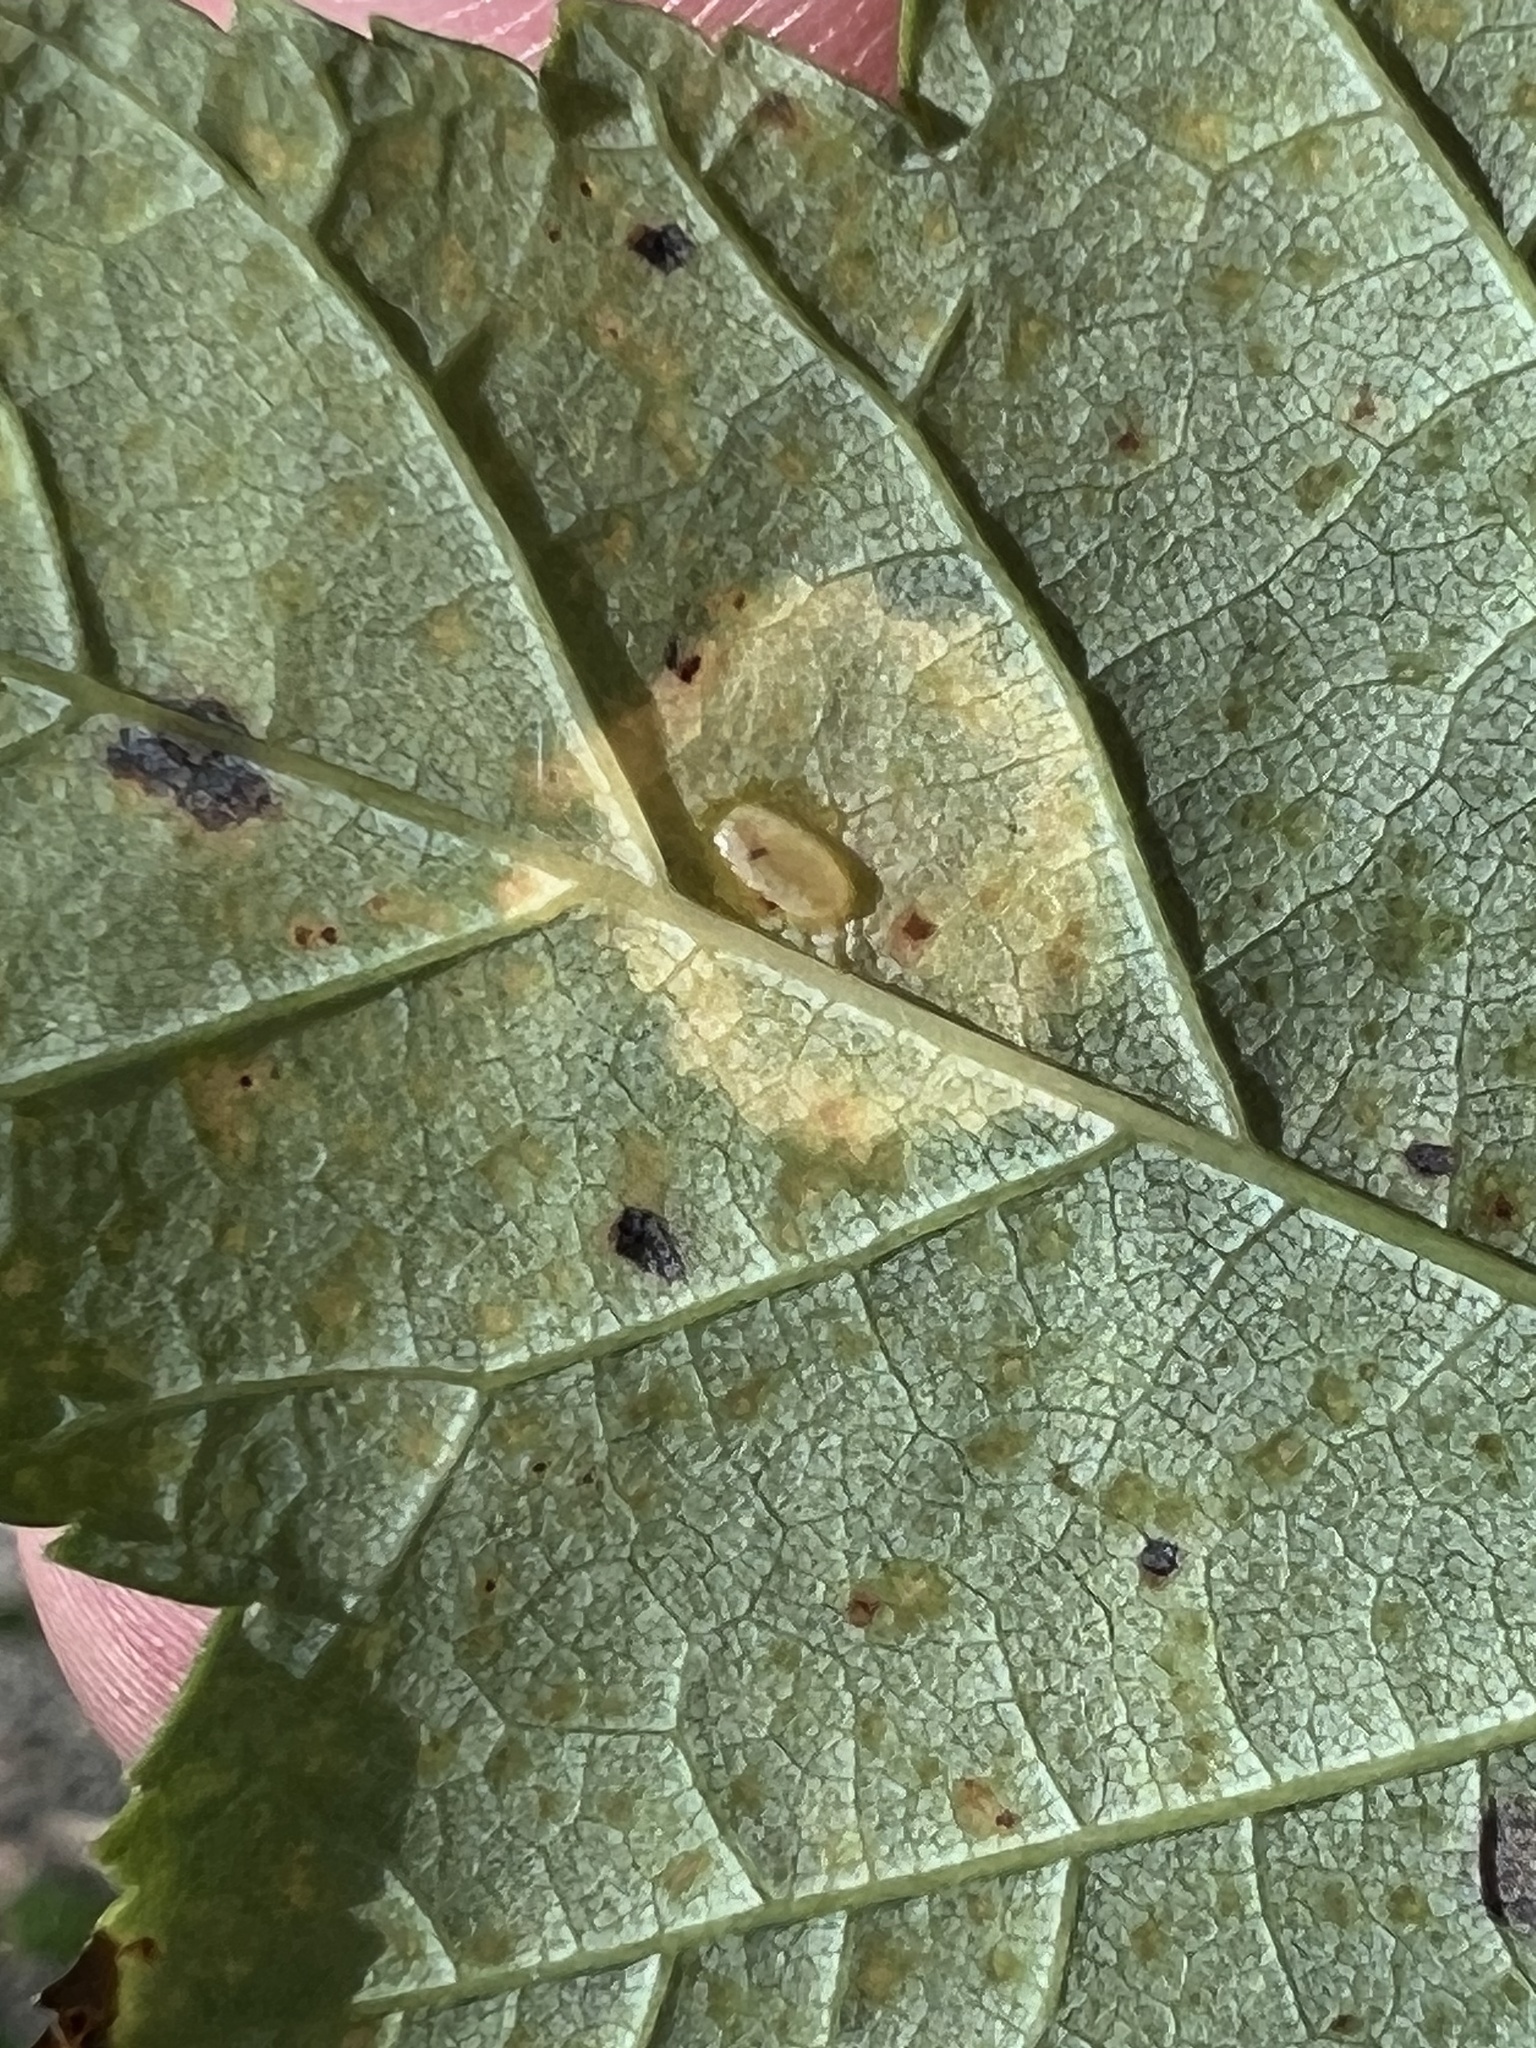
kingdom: Animalia
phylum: Arthropoda
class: Insecta
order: Diptera
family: Cecidomyiidae
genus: Acericecis
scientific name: Acericecis ocellaris
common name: Ocellate gall midge
